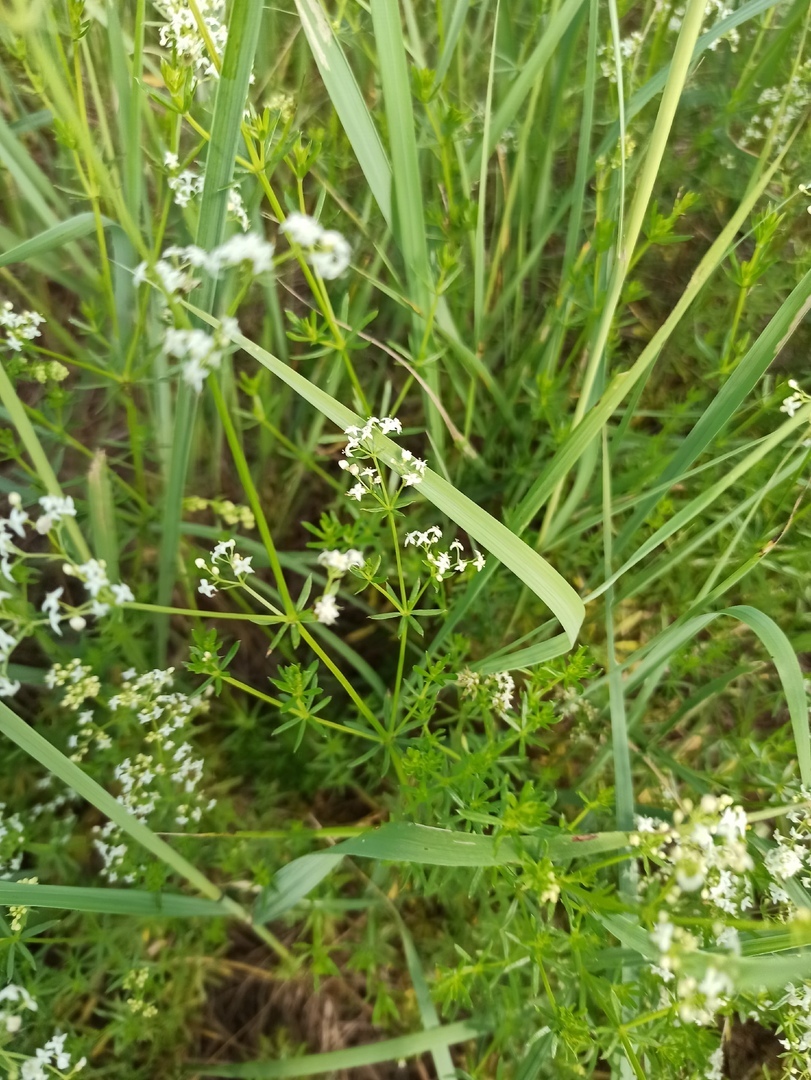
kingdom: Plantae
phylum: Tracheophyta
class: Magnoliopsida
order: Gentianales
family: Rubiaceae
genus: Galium
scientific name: Galium mollugo
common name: Hedge bedstraw
